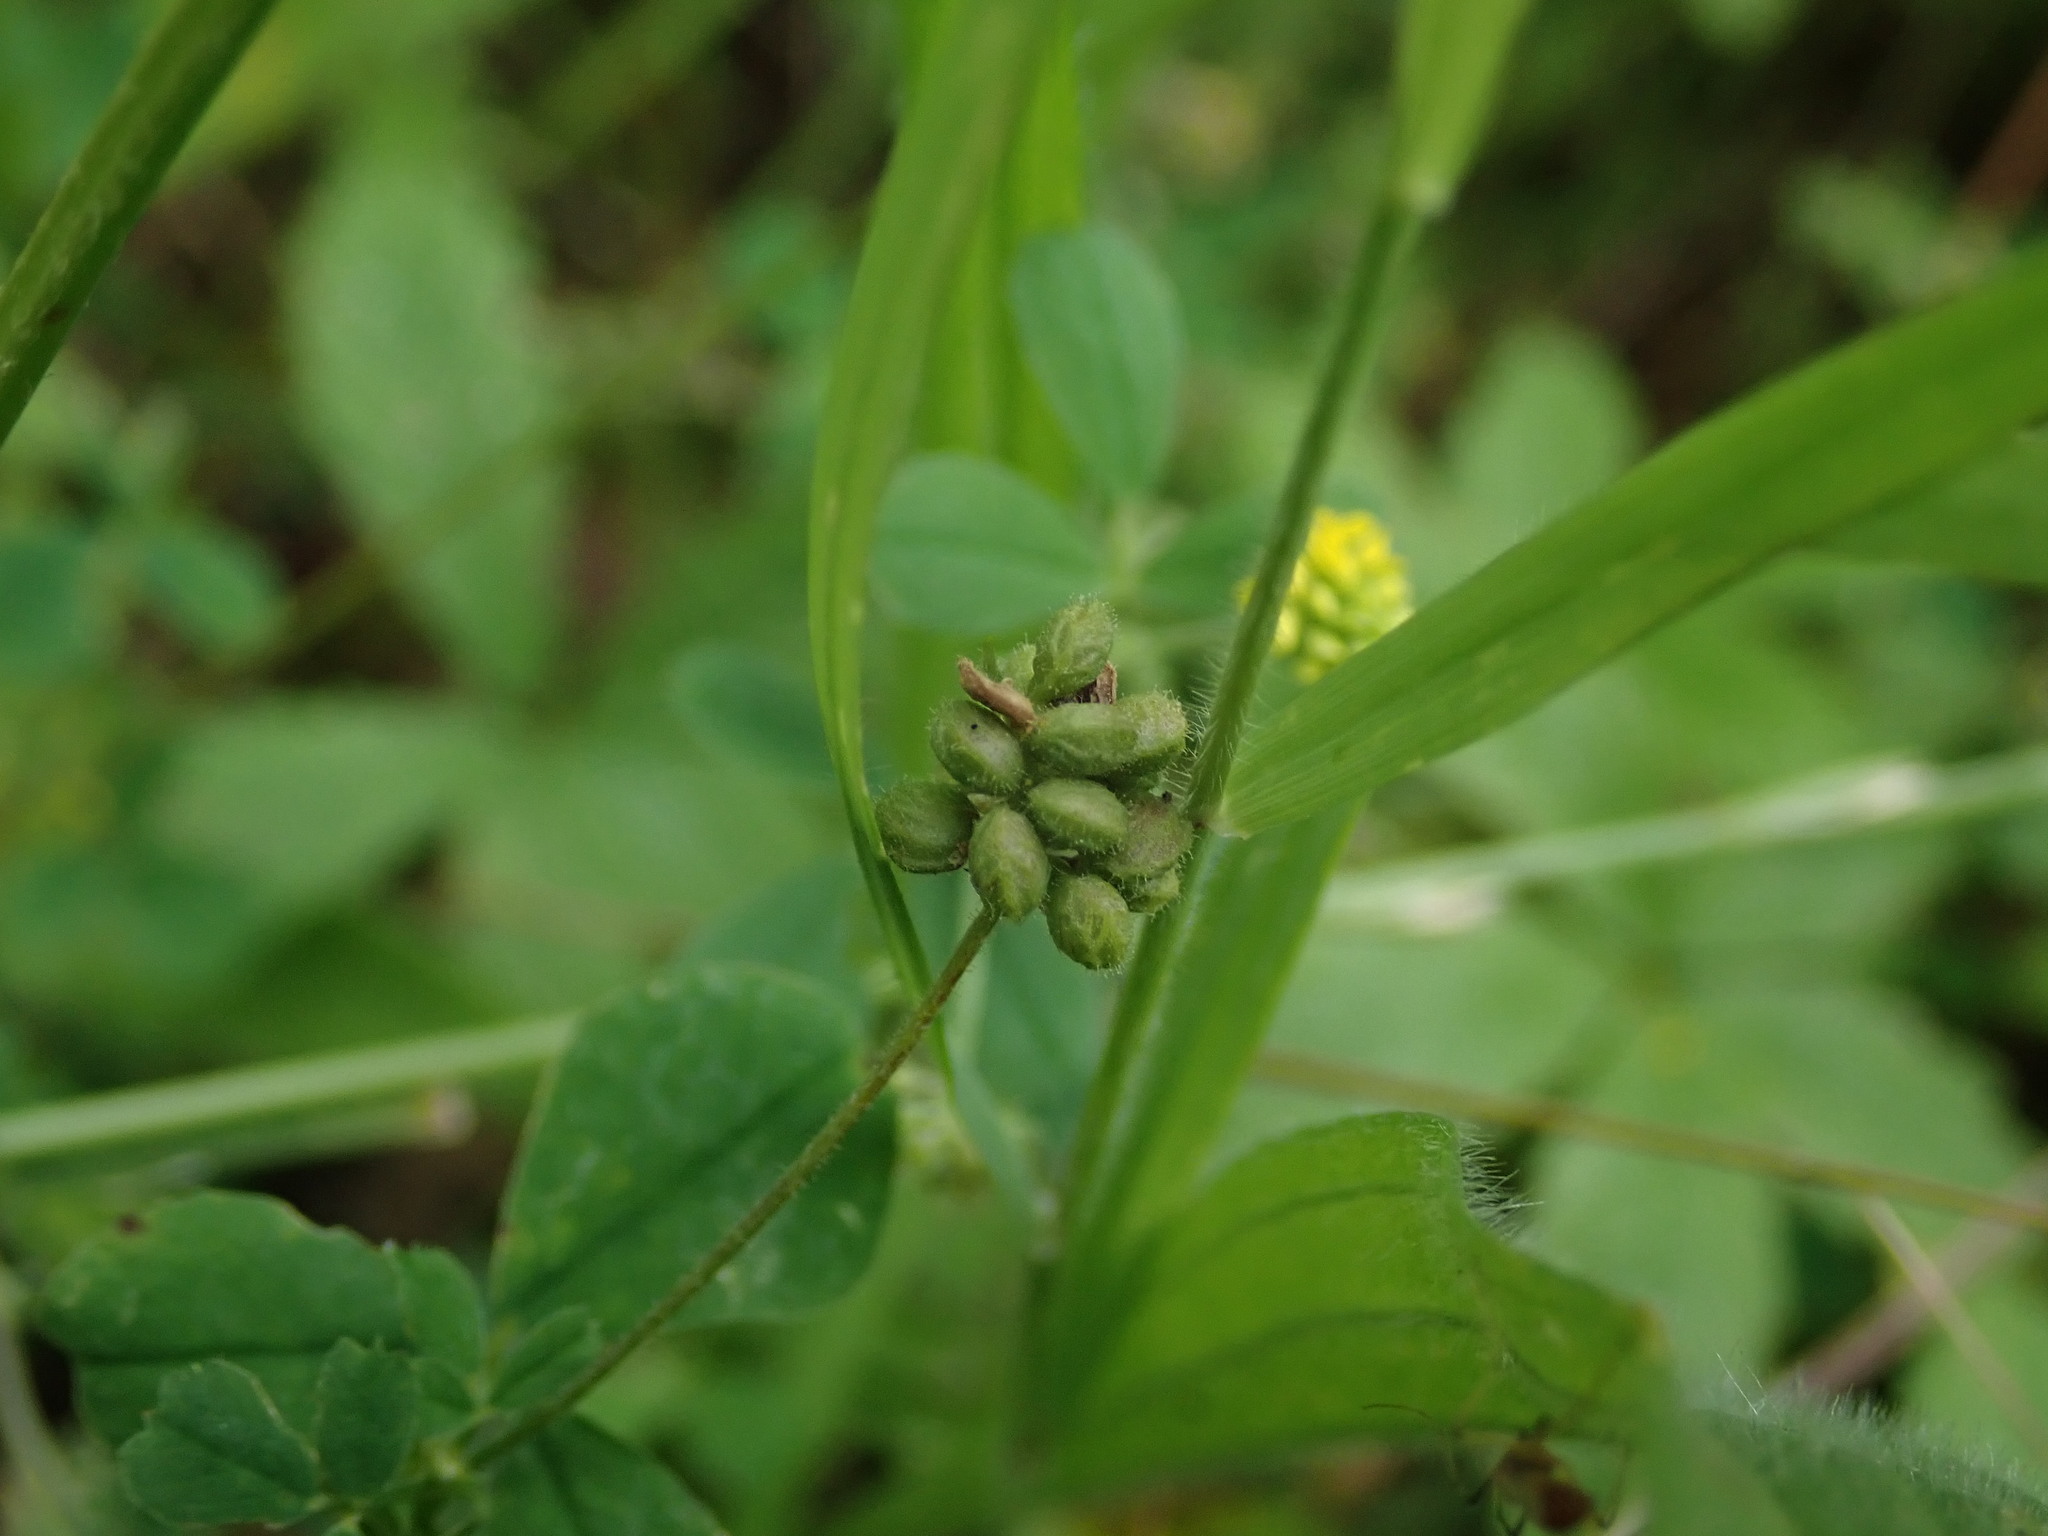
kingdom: Plantae
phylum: Tracheophyta
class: Magnoliopsida
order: Fabales
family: Fabaceae
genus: Medicago
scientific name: Medicago lupulina
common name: Black medick
